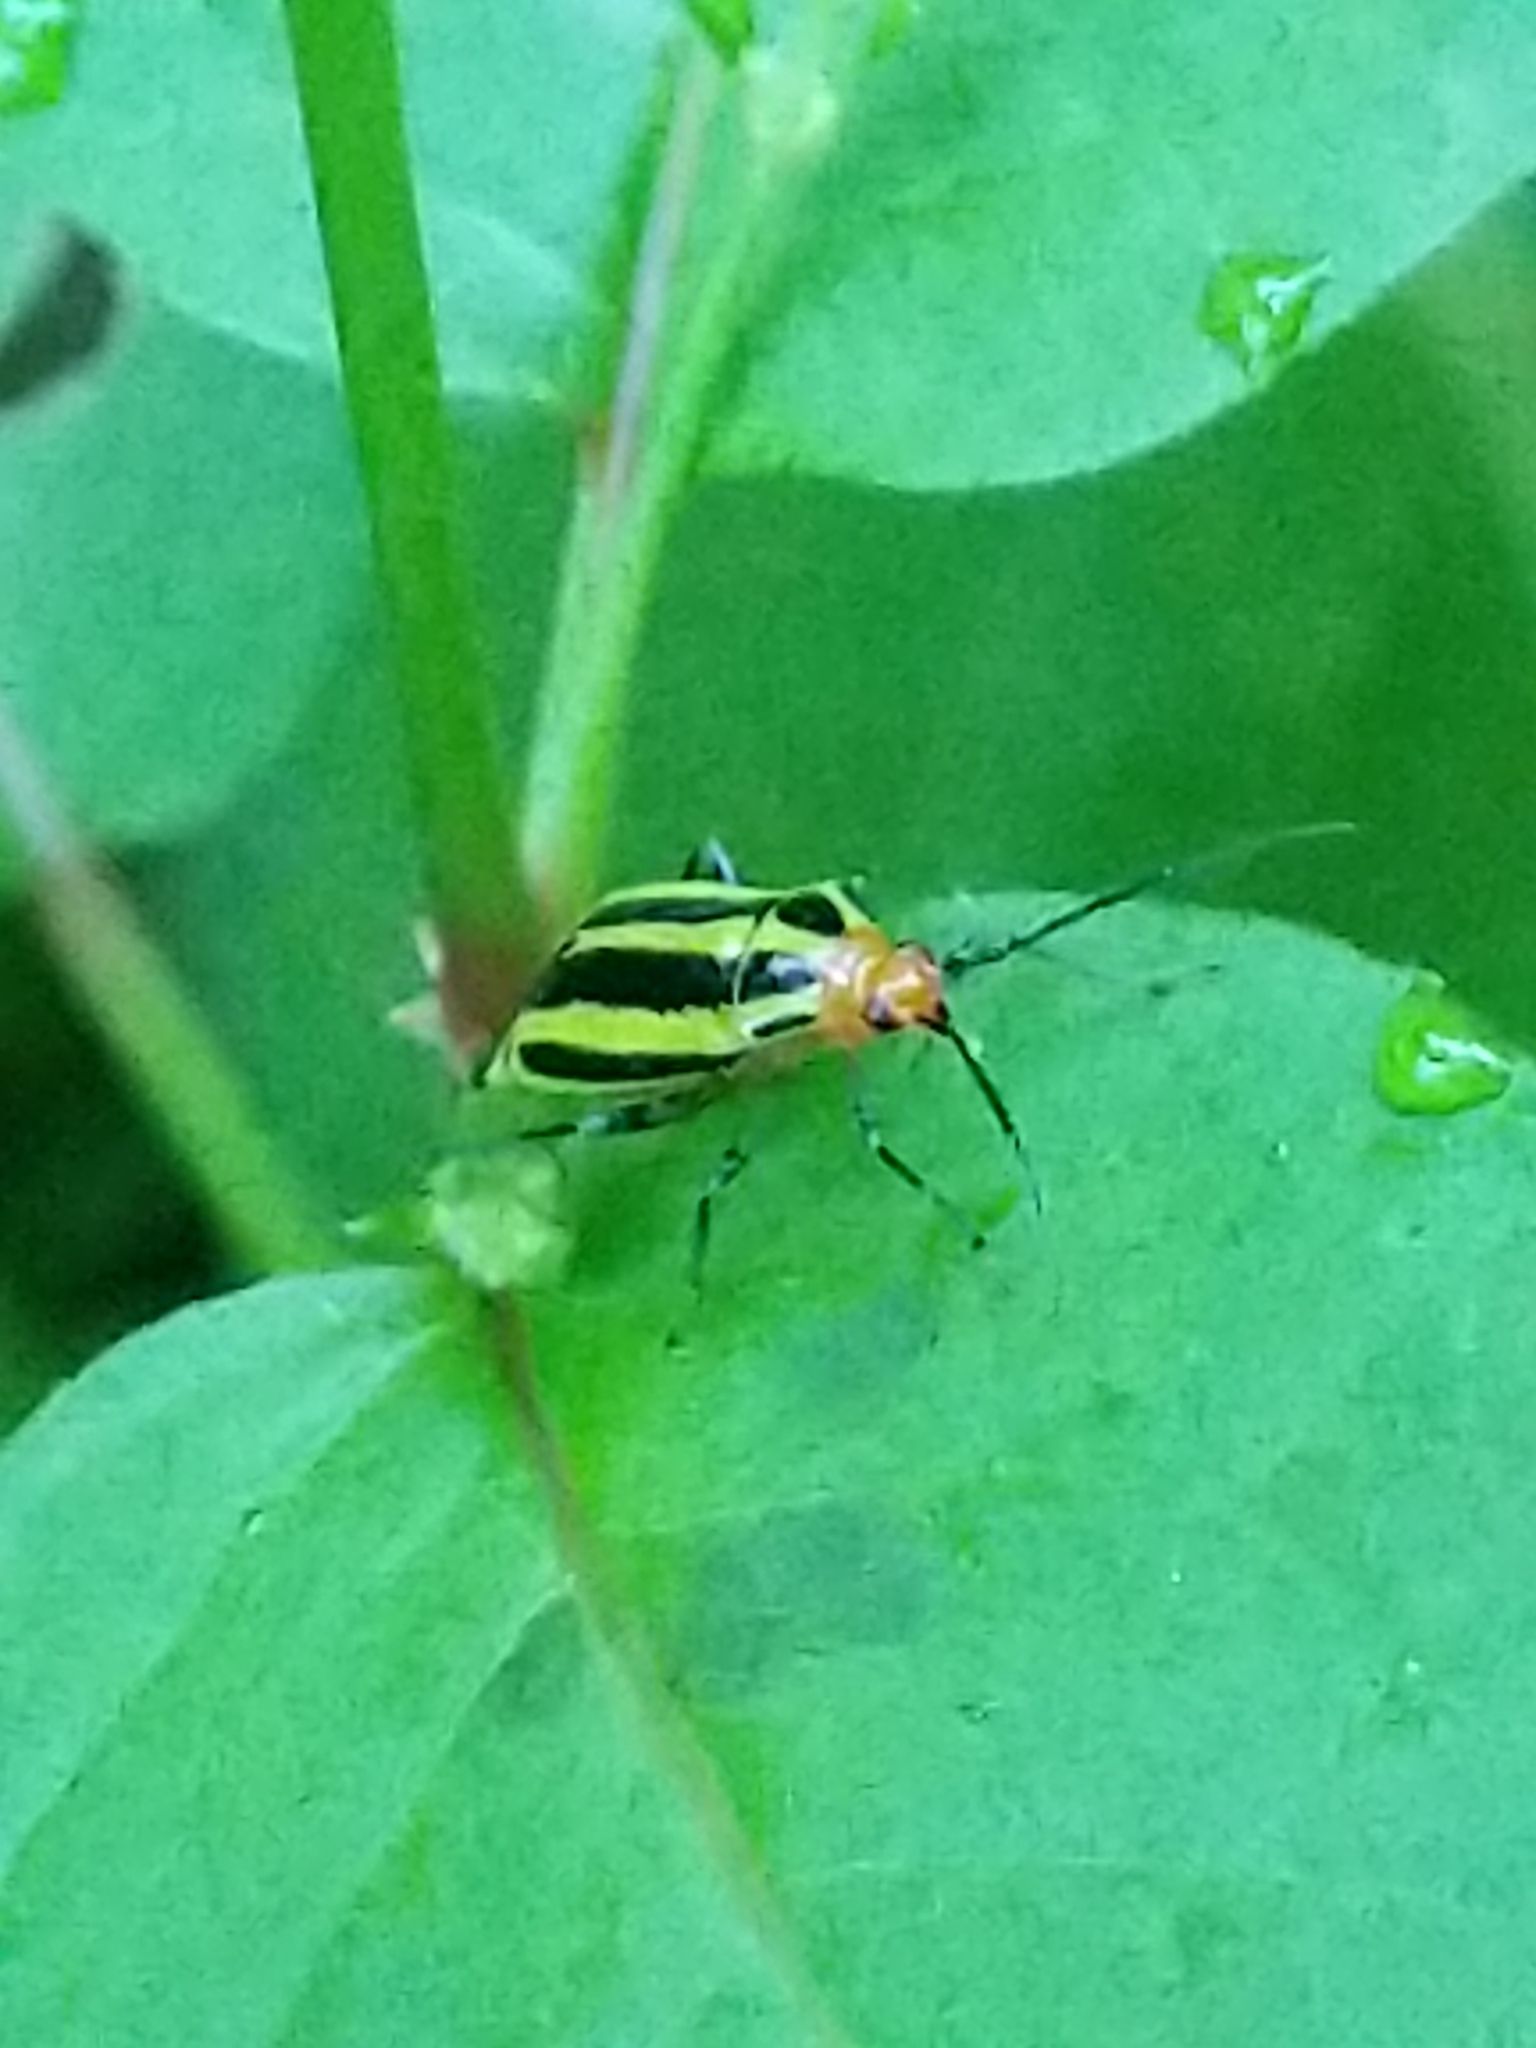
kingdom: Animalia
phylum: Arthropoda
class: Insecta
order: Hemiptera
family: Miridae
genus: Poecilocapsus
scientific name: Poecilocapsus lineatus
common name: Four-lined plant bug
